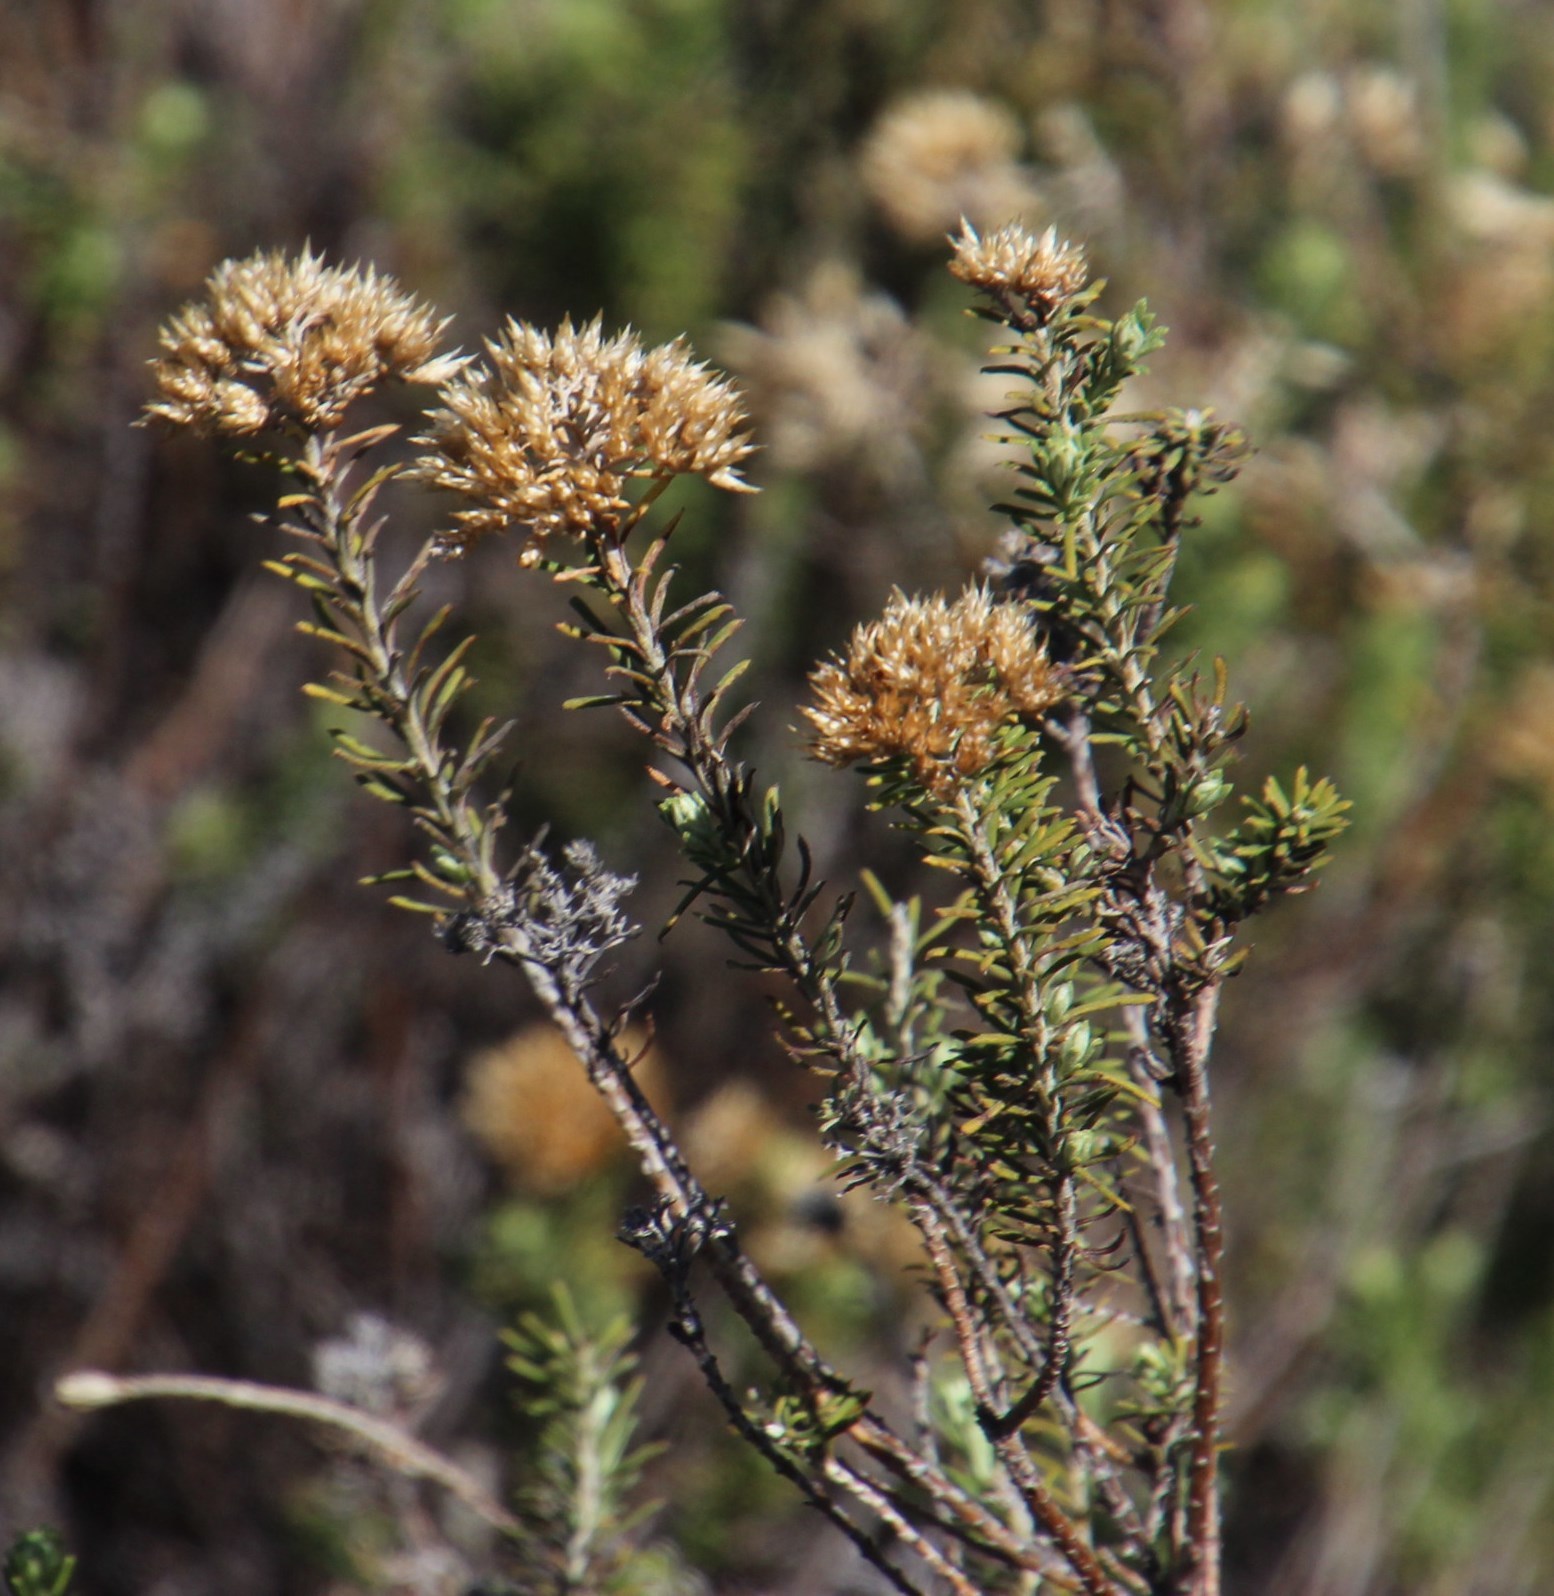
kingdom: Plantae
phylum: Tracheophyta
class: Magnoliopsida
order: Asterales
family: Asteraceae
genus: Metalasia
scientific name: Metalasia densa
